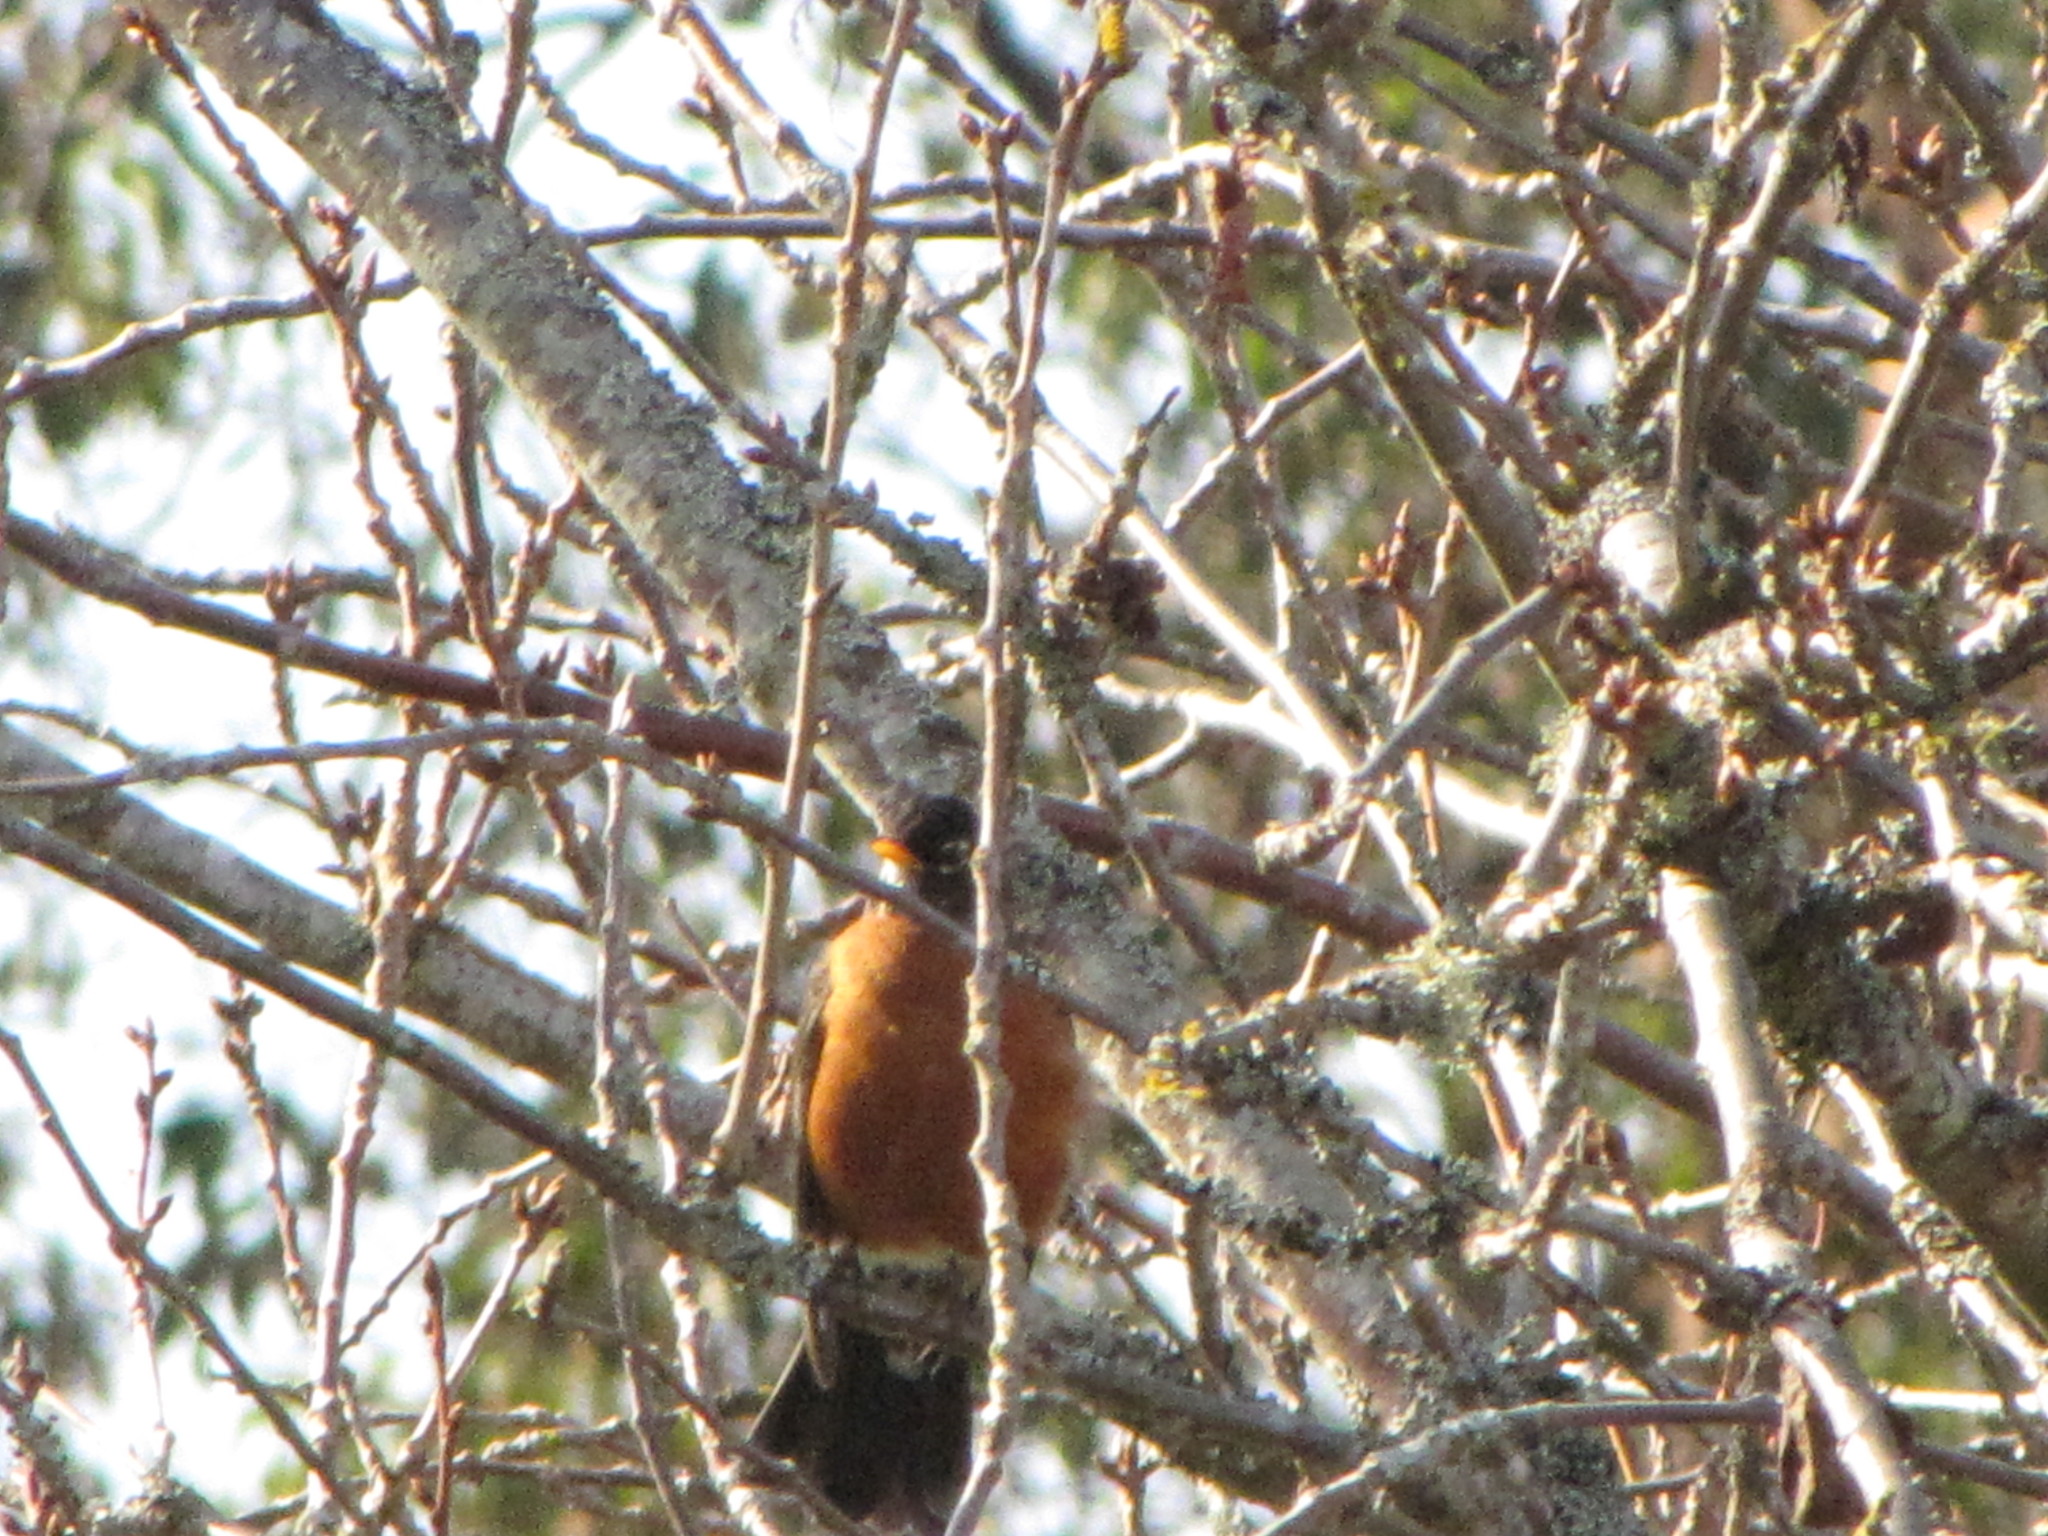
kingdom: Animalia
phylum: Chordata
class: Aves
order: Passeriformes
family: Turdidae
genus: Turdus
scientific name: Turdus migratorius
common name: American robin
